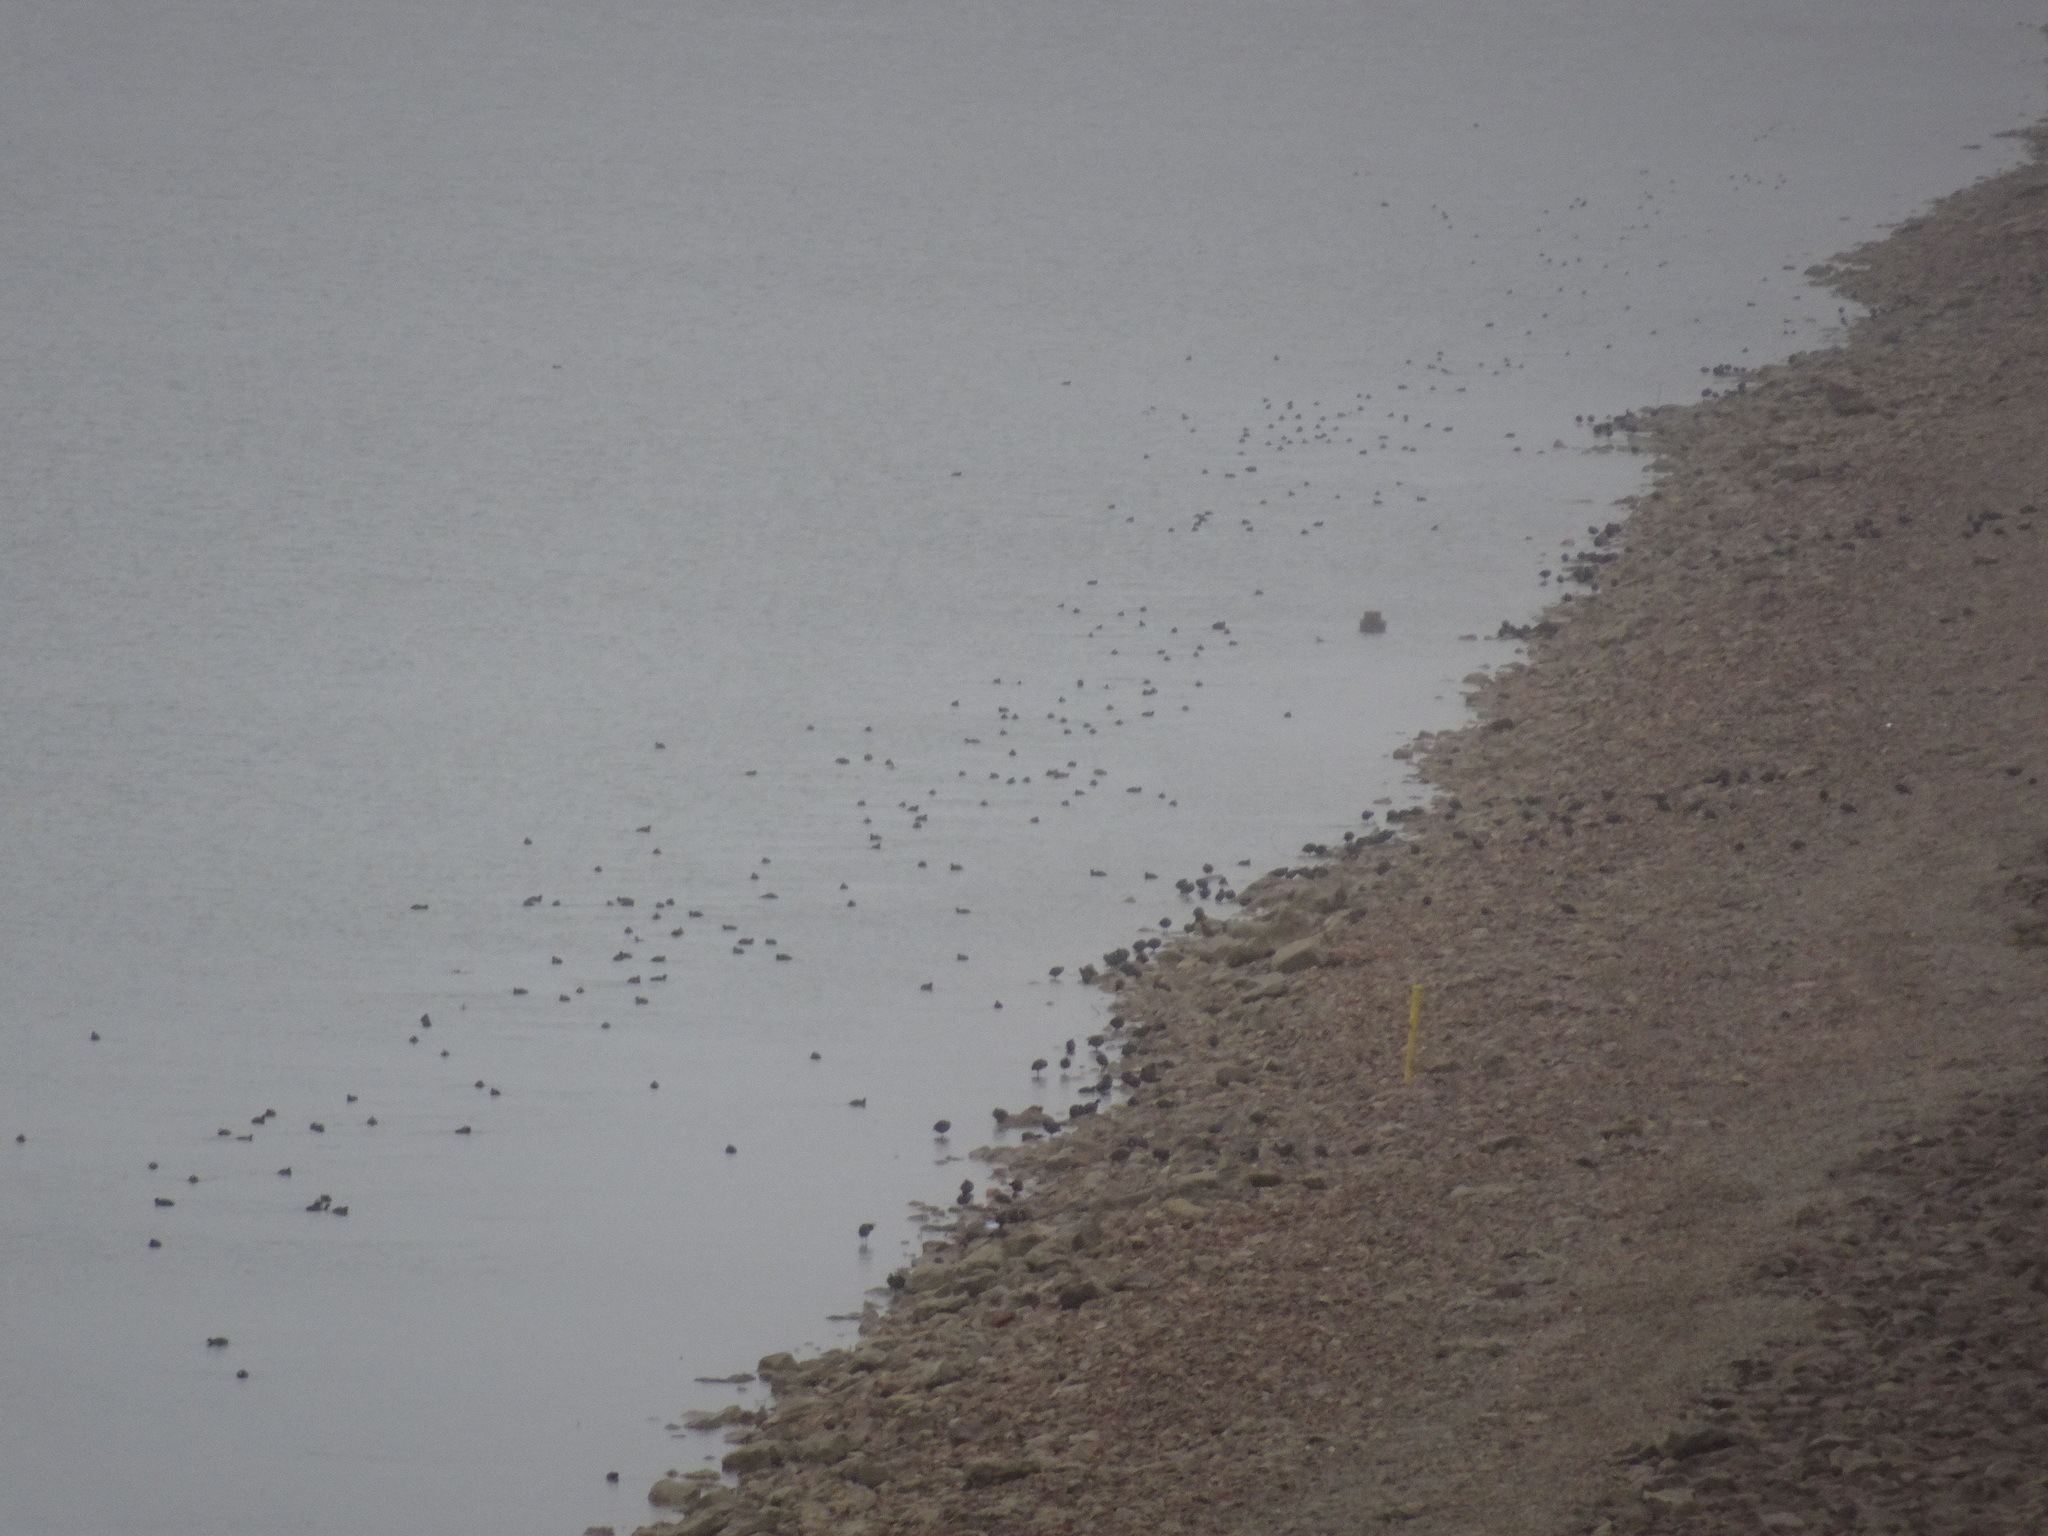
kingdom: Animalia
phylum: Chordata
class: Aves
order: Gruiformes
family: Rallidae
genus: Fulica
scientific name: Fulica americana
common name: American coot
